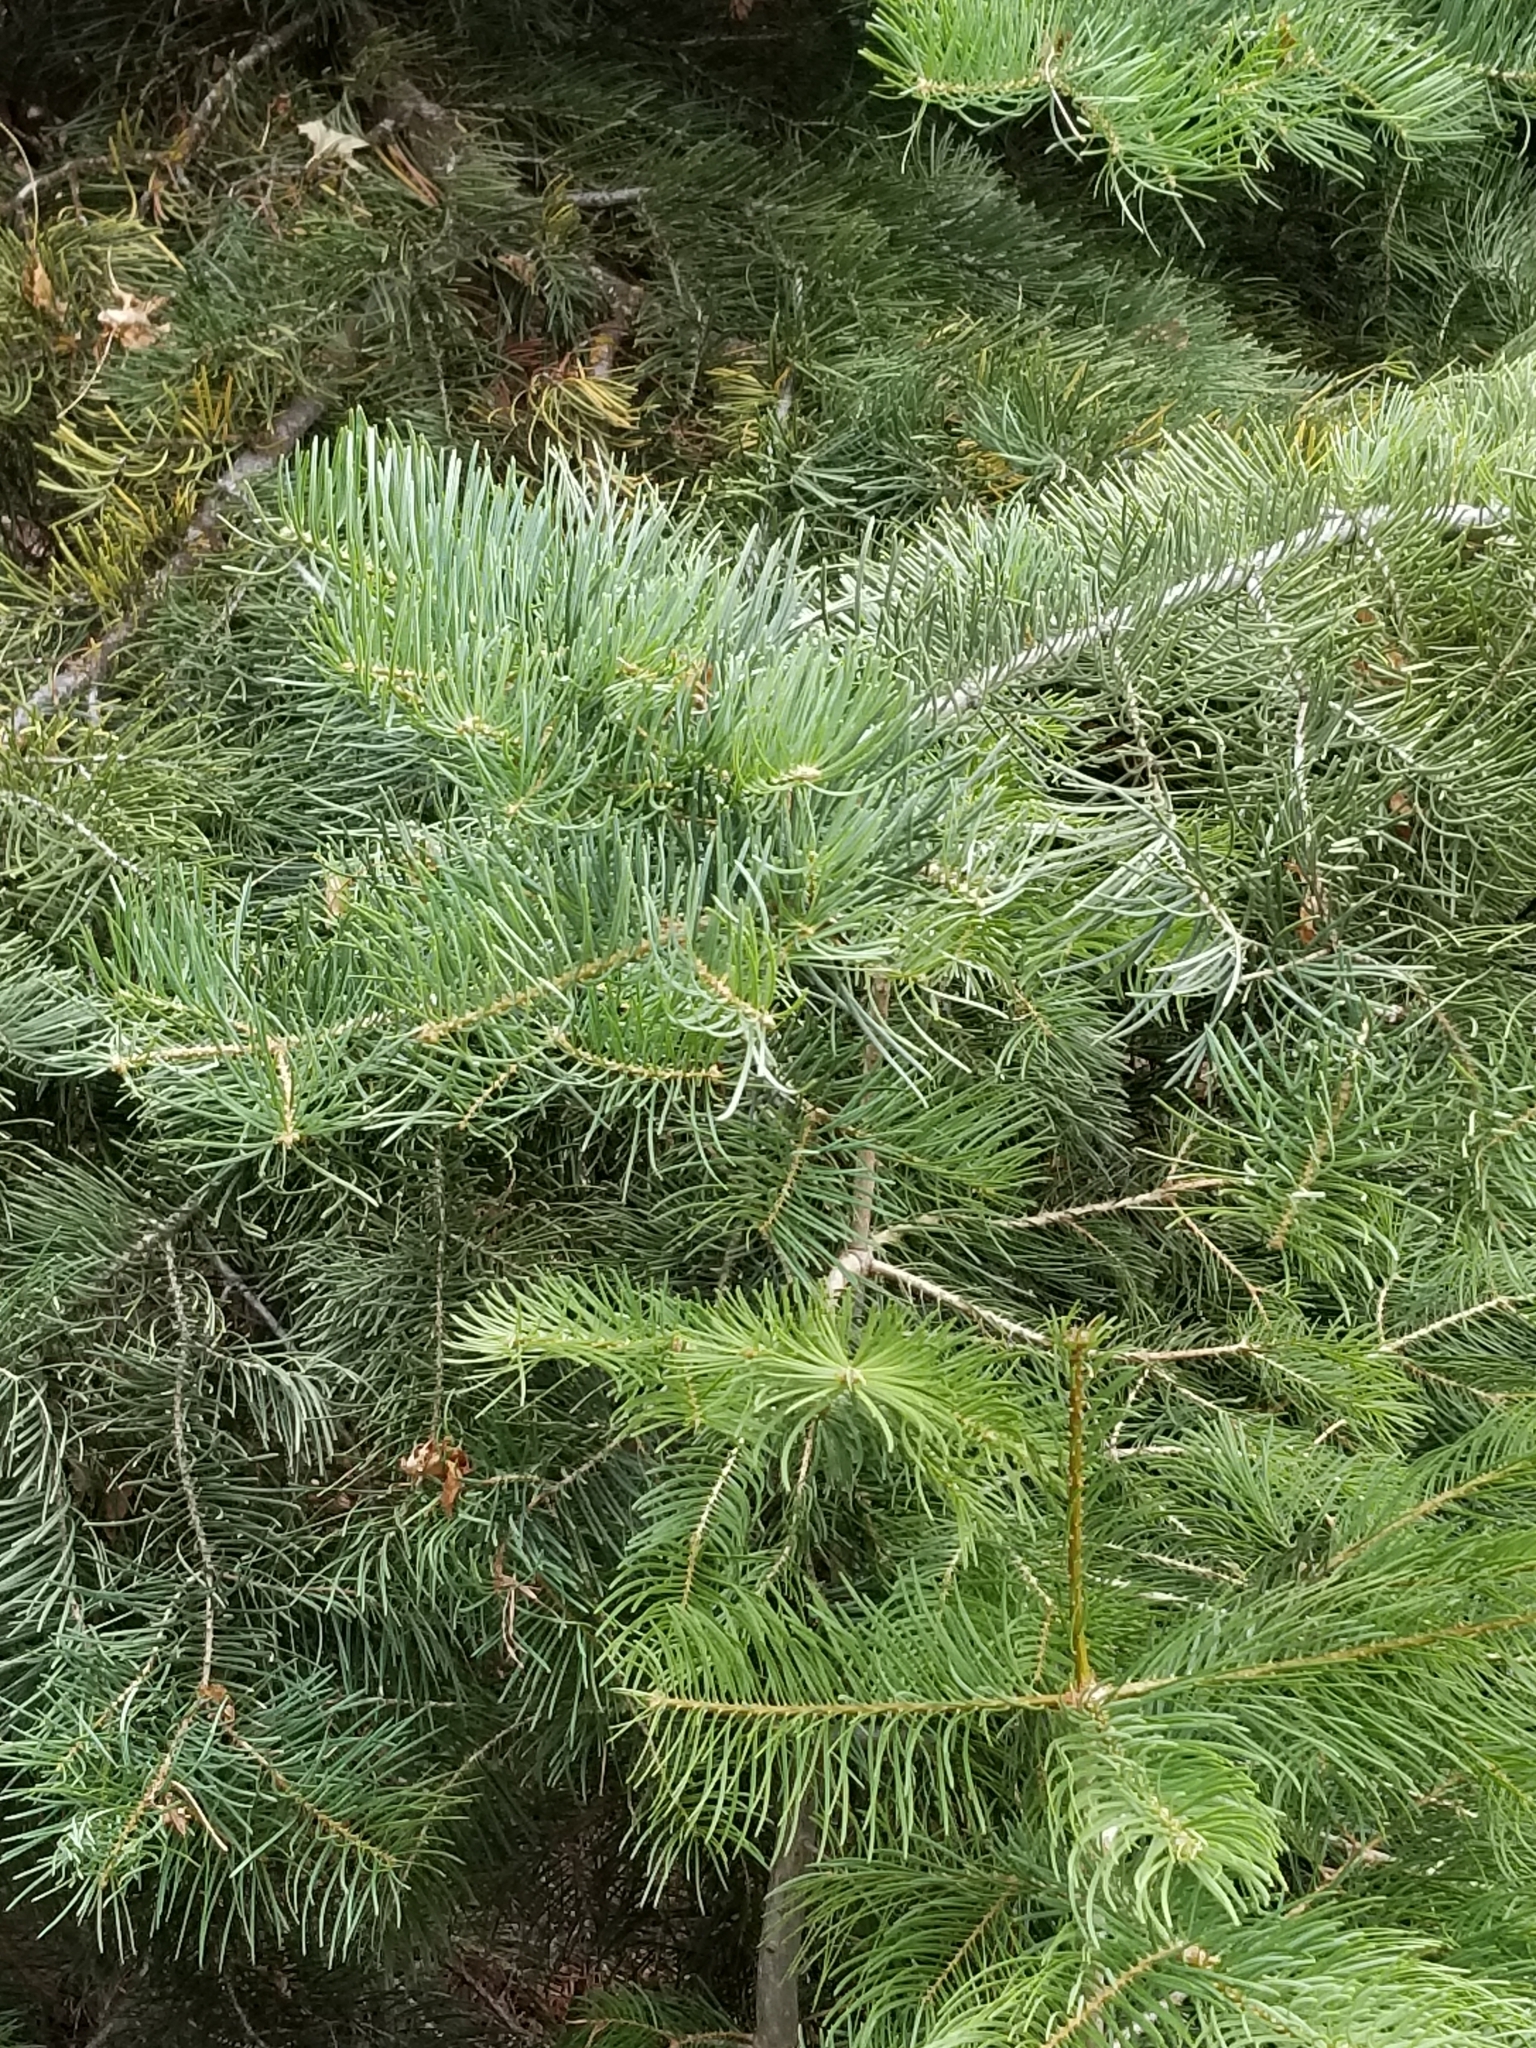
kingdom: Plantae
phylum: Tracheophyta
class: Pinopsida
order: Pinales
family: Pinaceae
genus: Abies
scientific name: Abies concolor
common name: Colorado fir
